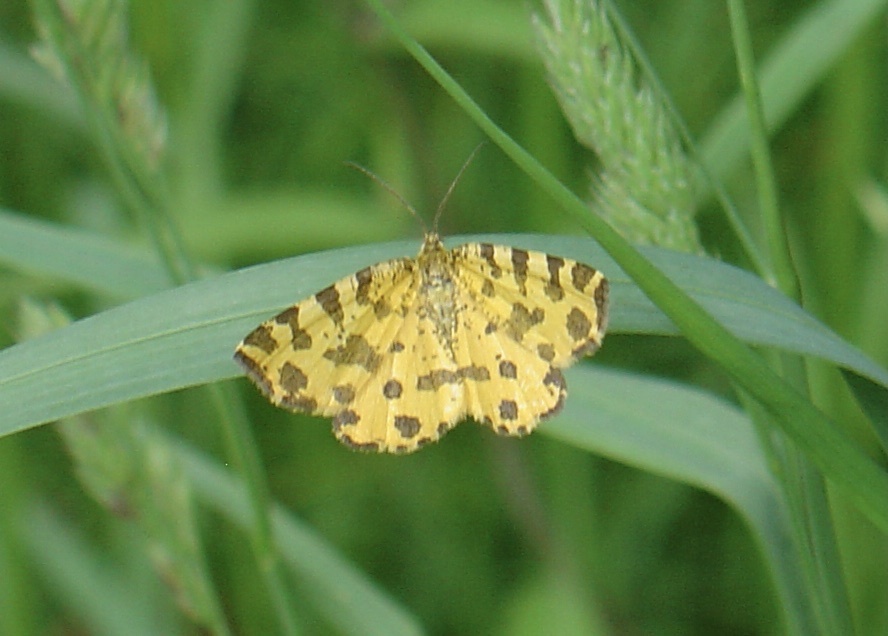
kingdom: Animalia
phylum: Arthropoda
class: Insecta
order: Lepidoptera
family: Geometridae
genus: Pseudopanthera
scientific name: Pseudopanthera macularia
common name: Speckled yellow
